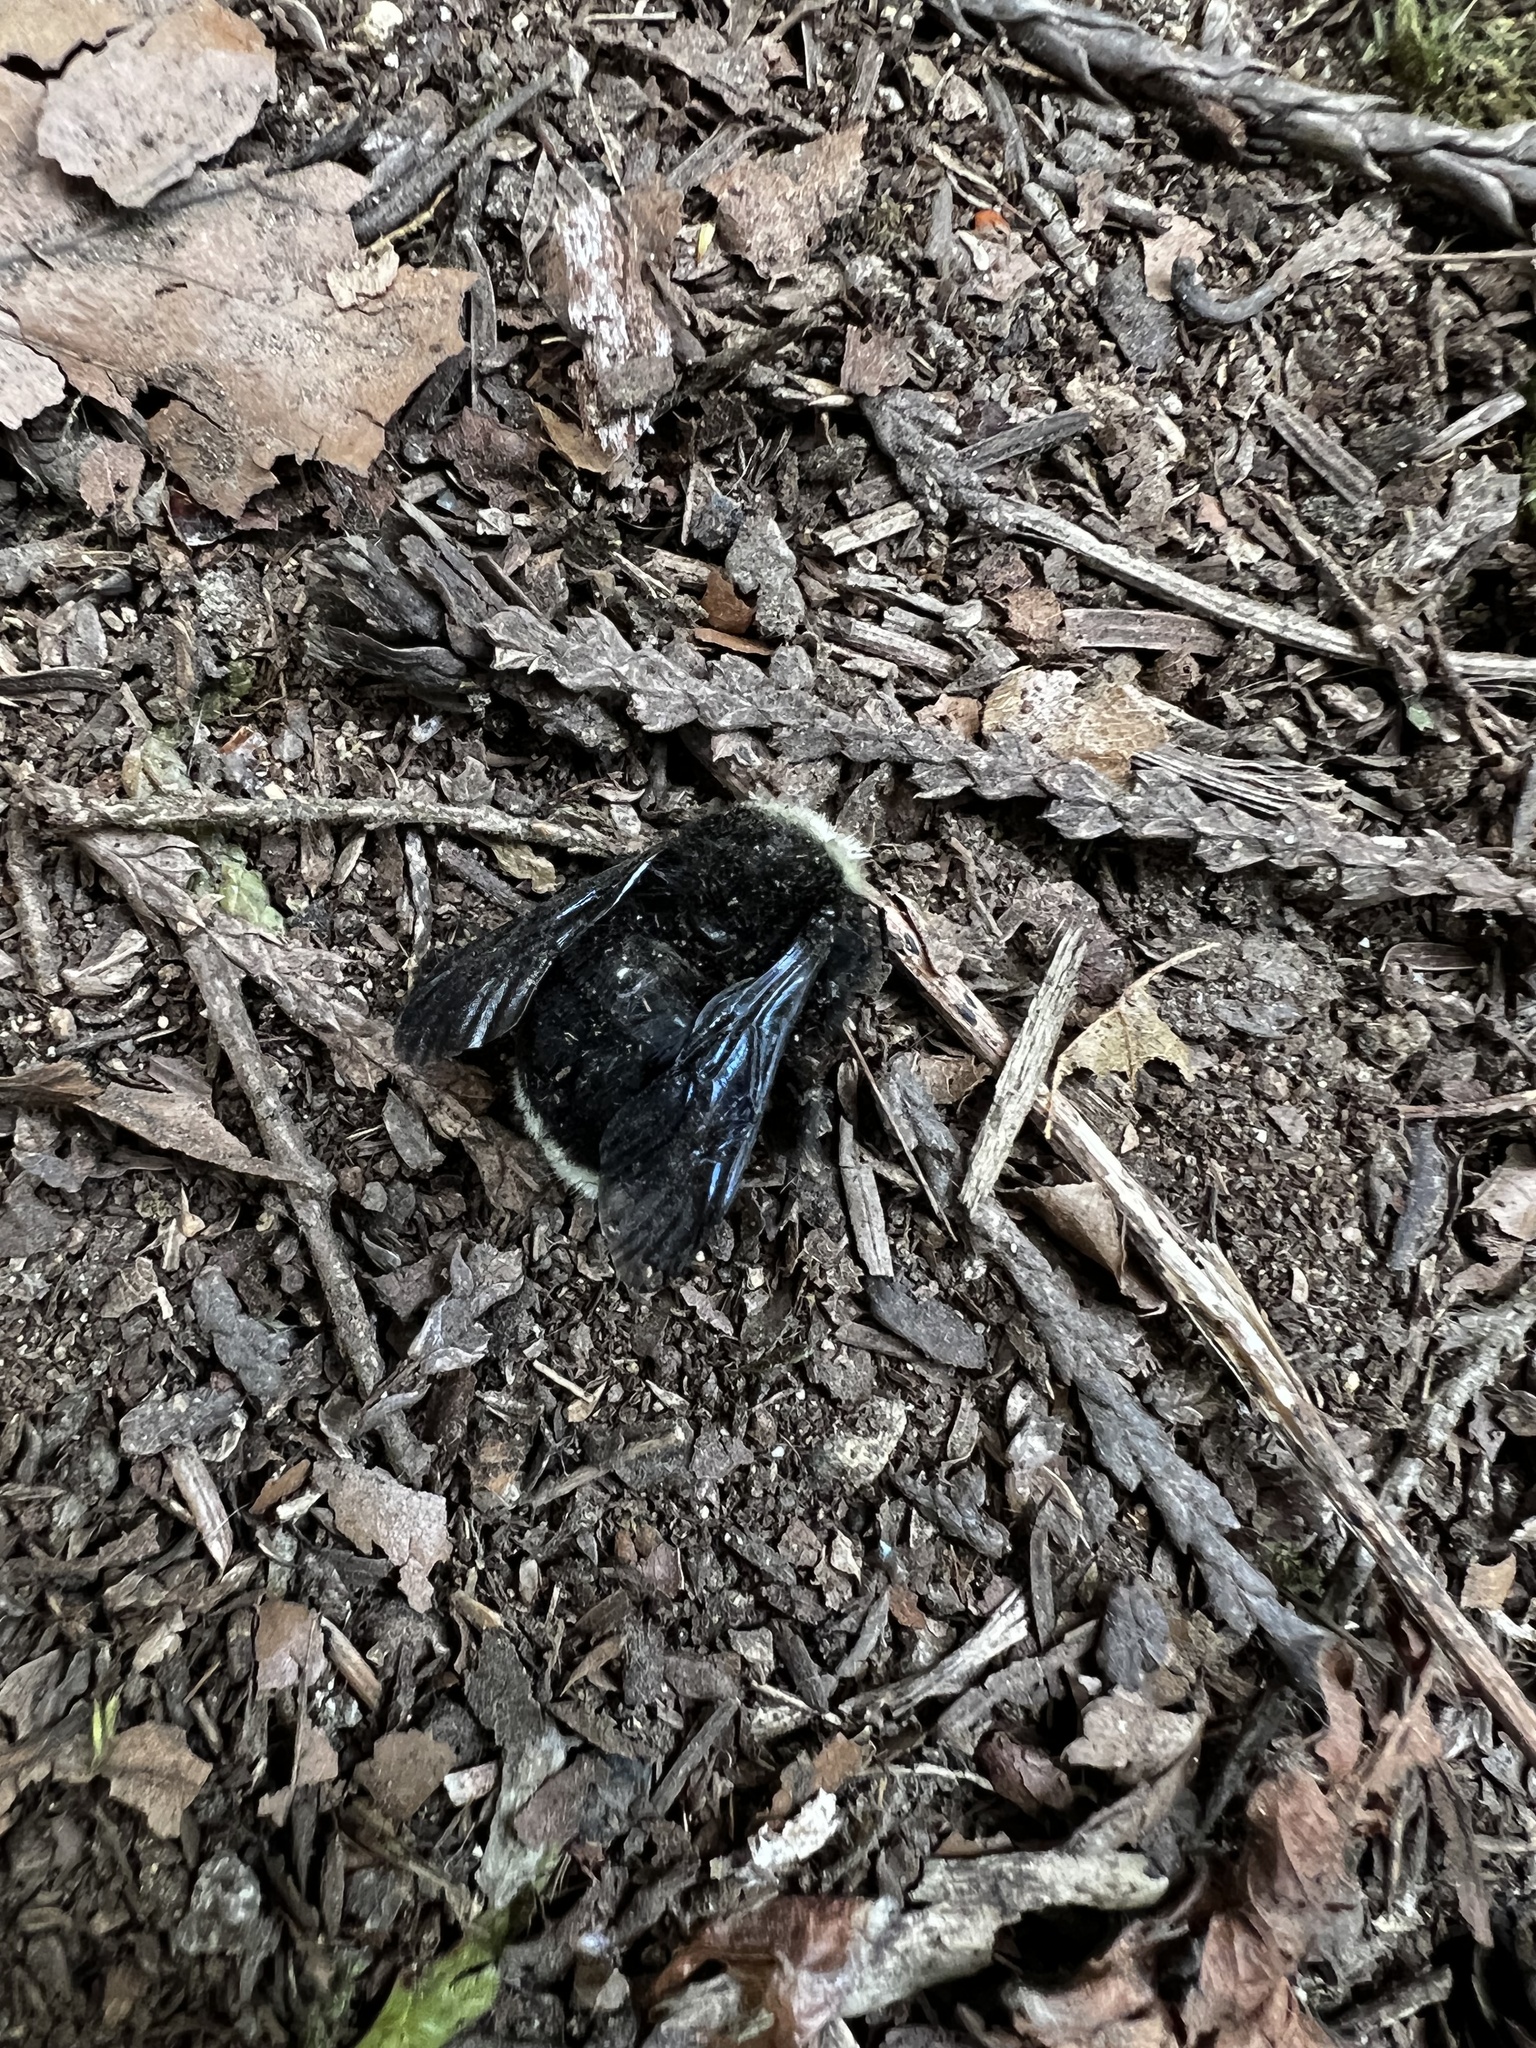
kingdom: Animalia
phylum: Arthropoda
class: Insecta
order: Hymenoptera
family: Apidae
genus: Bombus
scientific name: Bombus vosnesenskii
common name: Vosnesensky bumble bee
